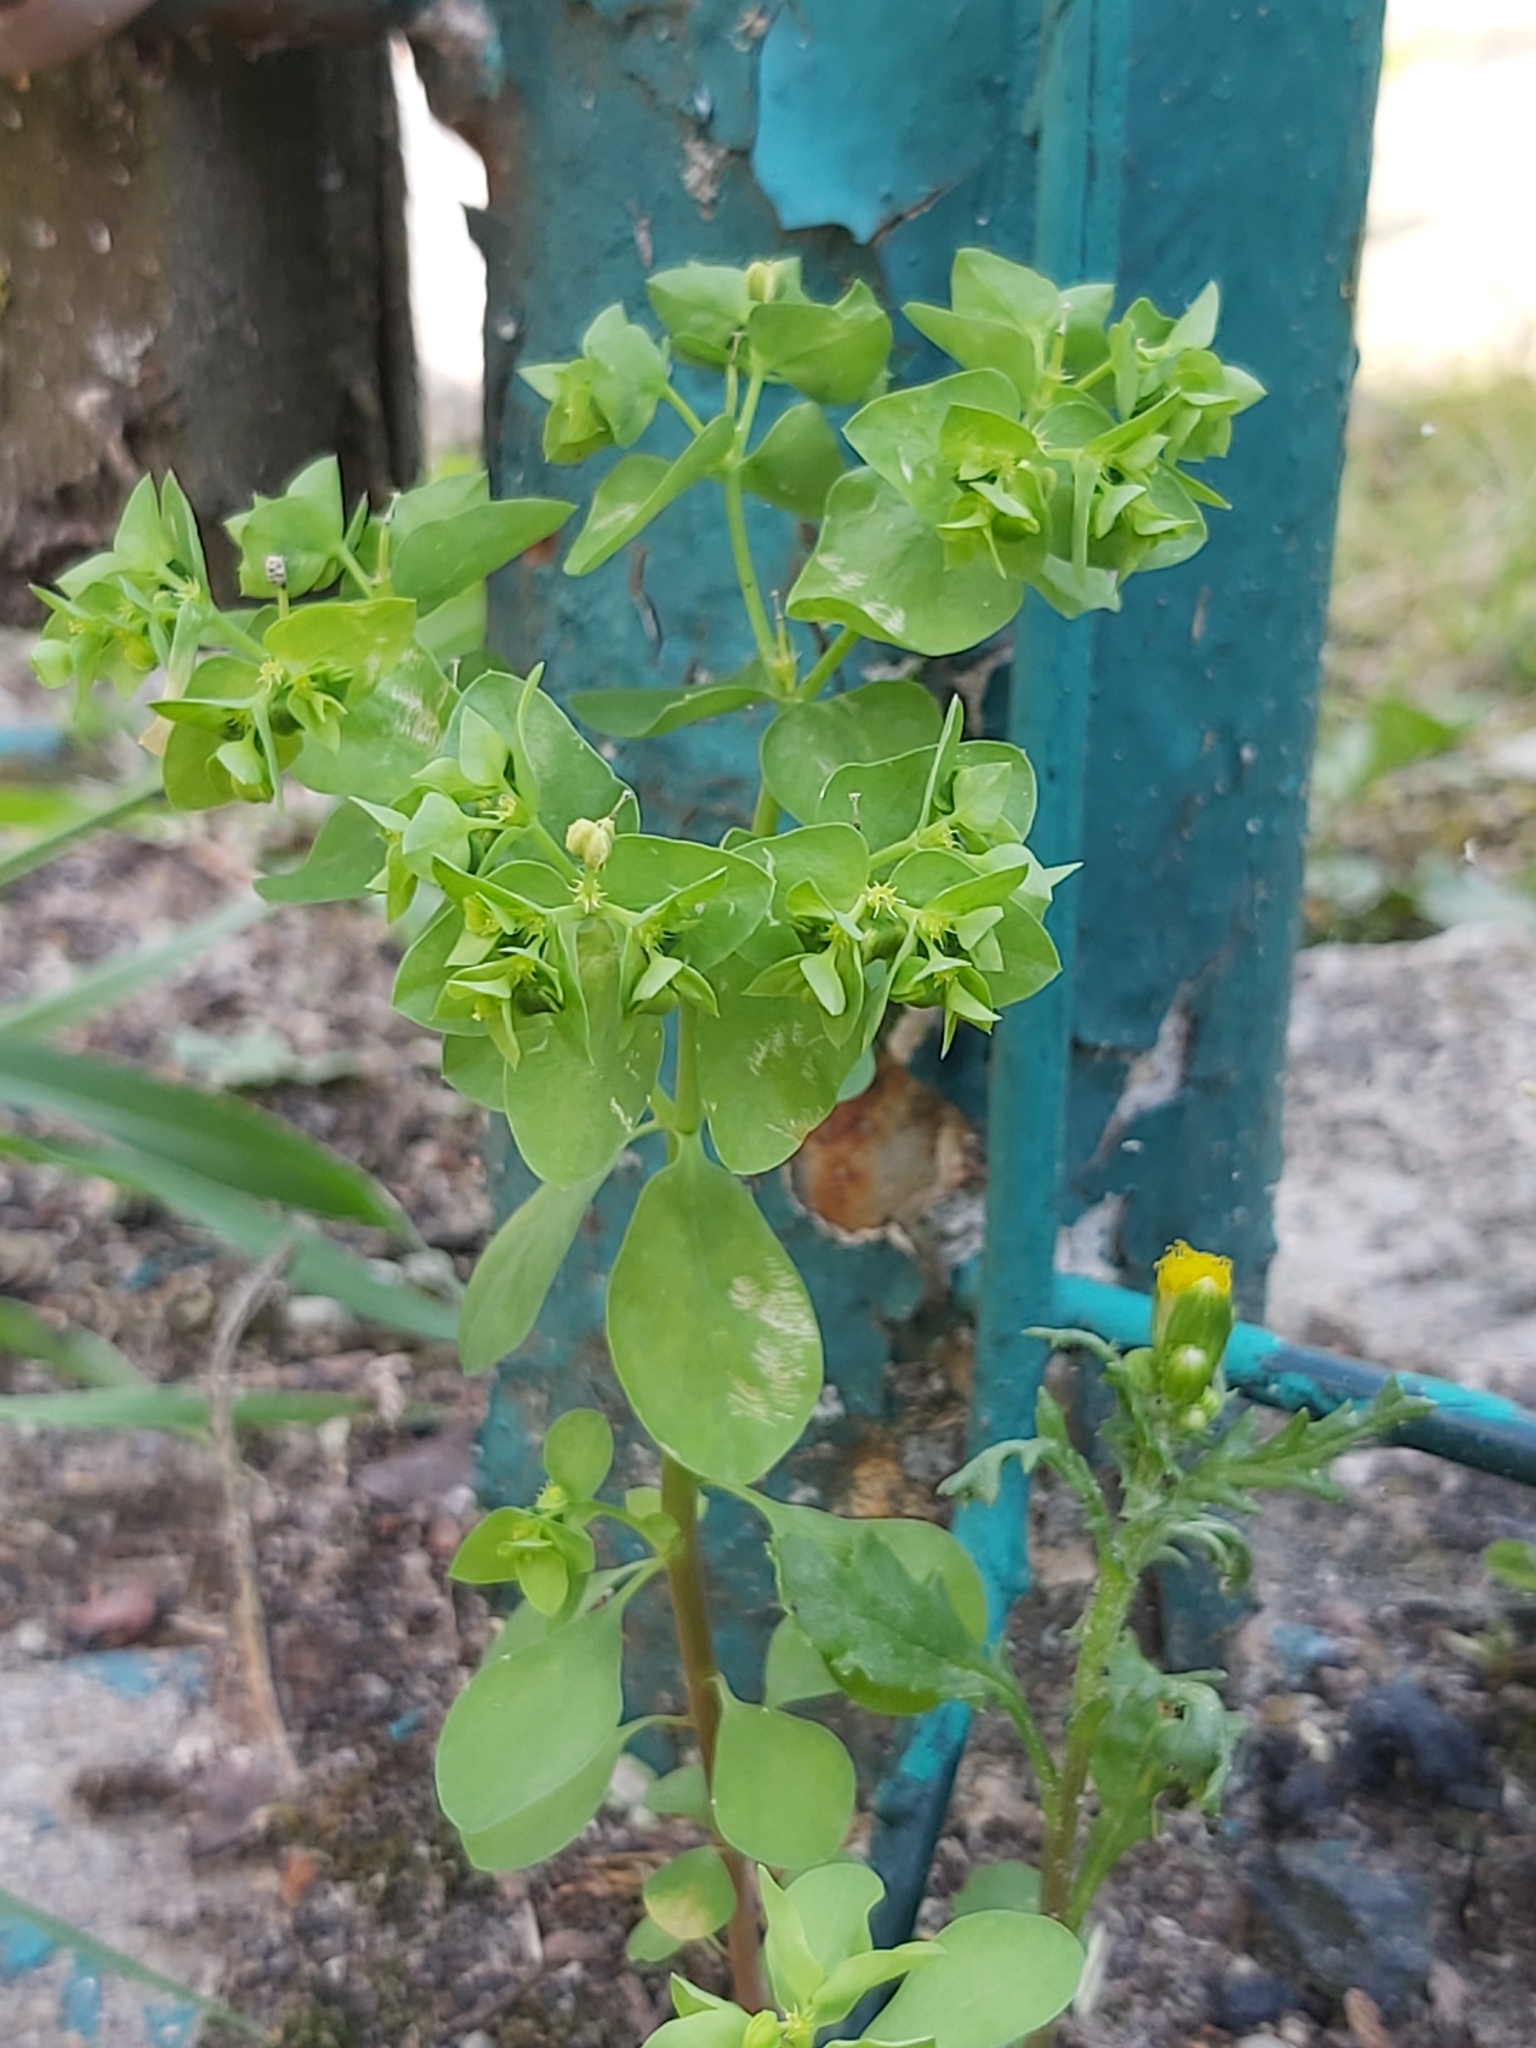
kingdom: Plantae
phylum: Tracheophyta
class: Magnoliopsida
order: Malpighiales
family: Euphorbiaceae
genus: Euphorbia
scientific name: Euphorbia peplus
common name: Petty spurge
